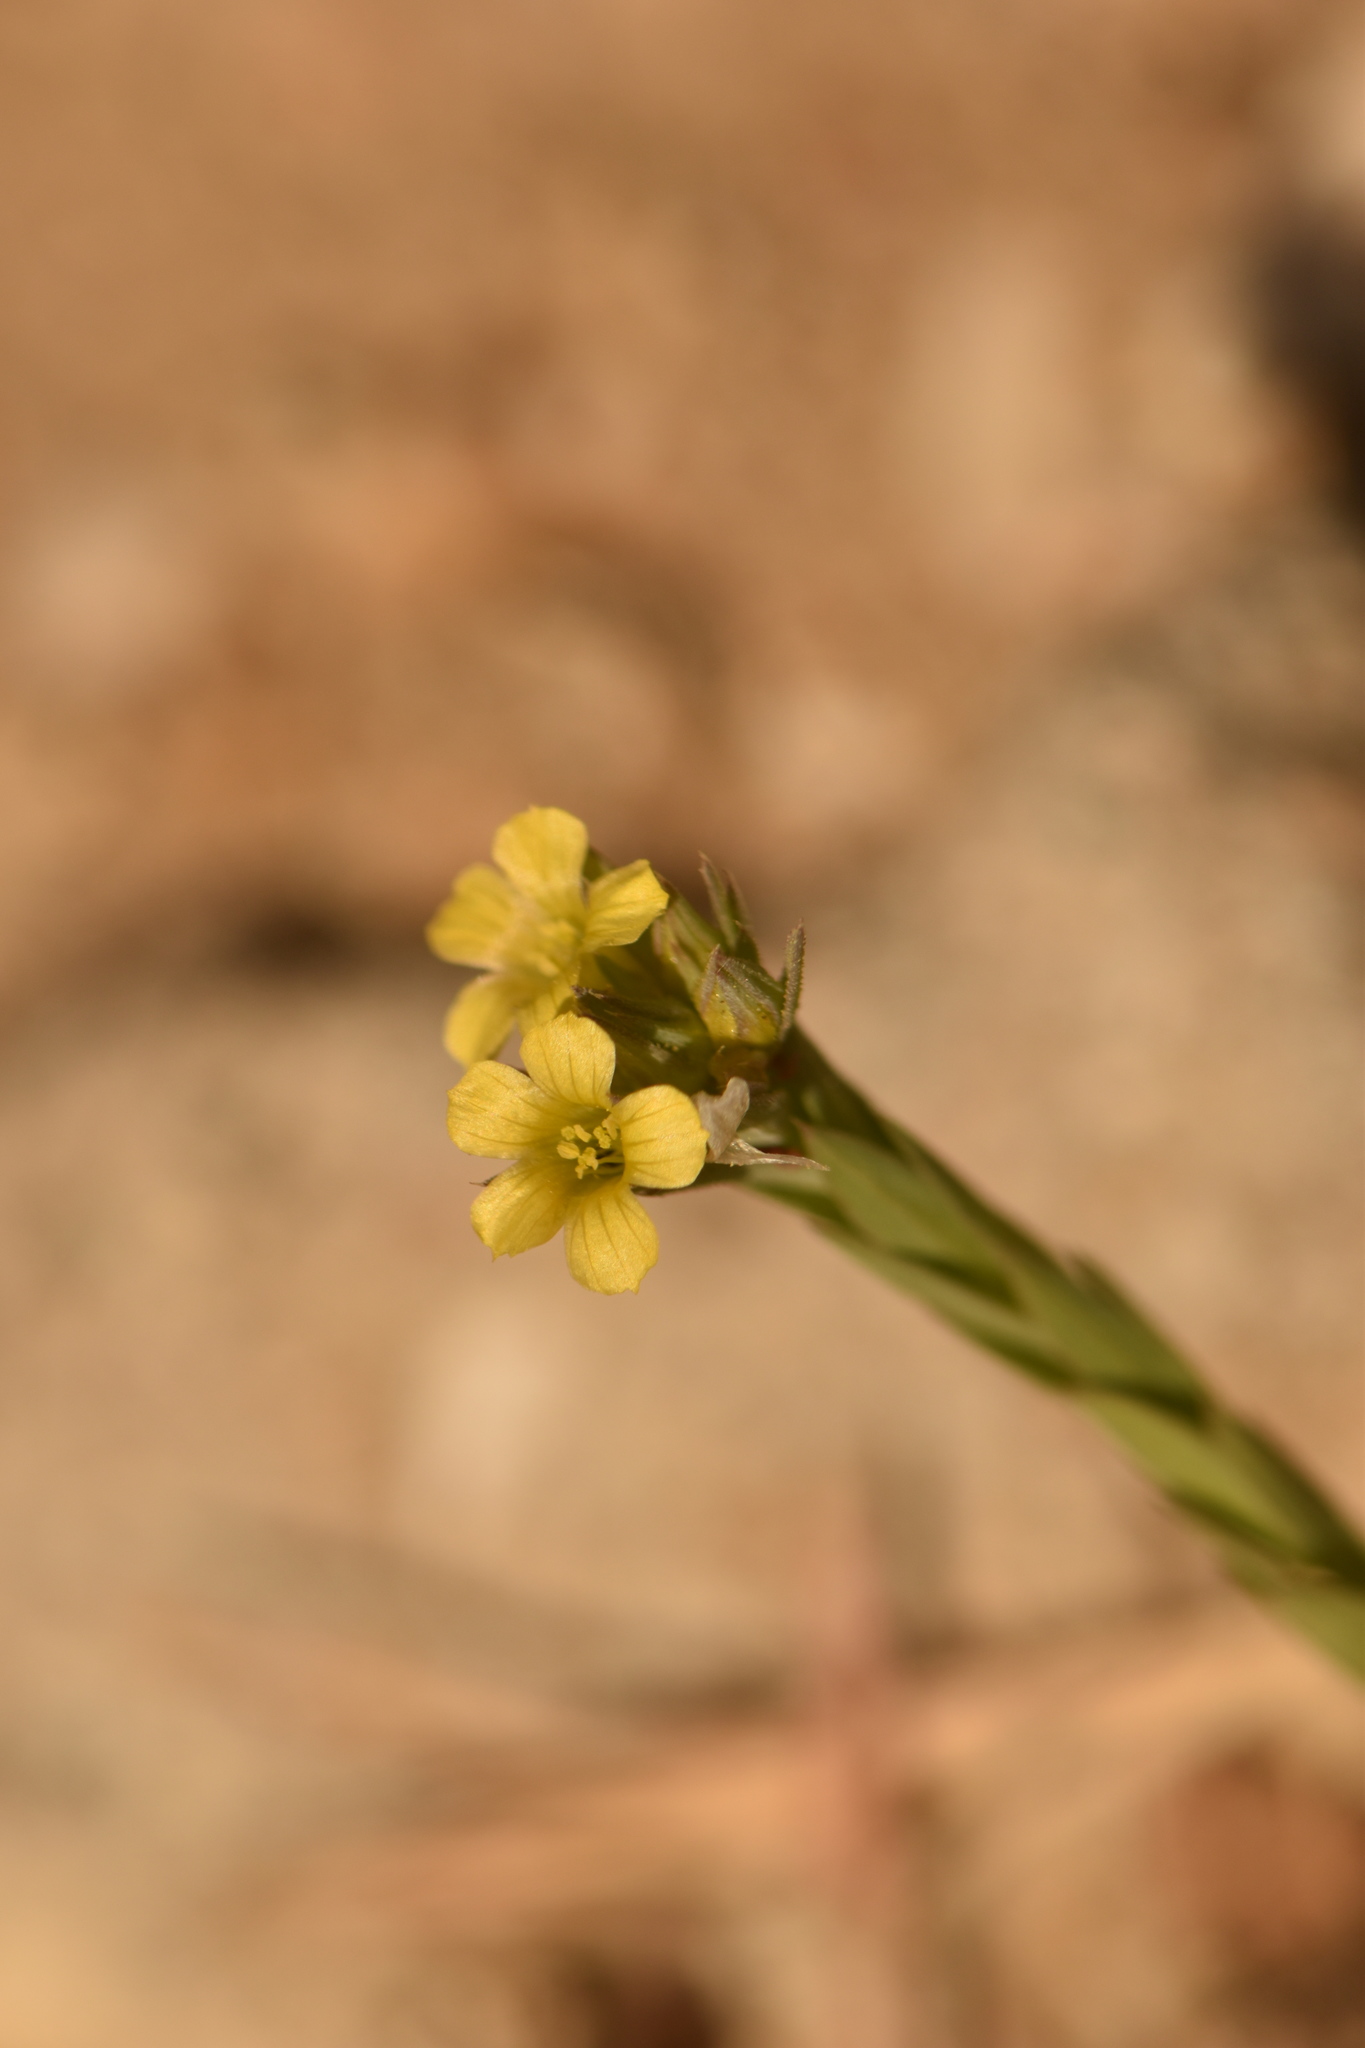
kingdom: Plantae
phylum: Tracheophyta
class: Magnoliopsida
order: Malpighiales
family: Linaceae
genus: Linum
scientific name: Linum strictum
